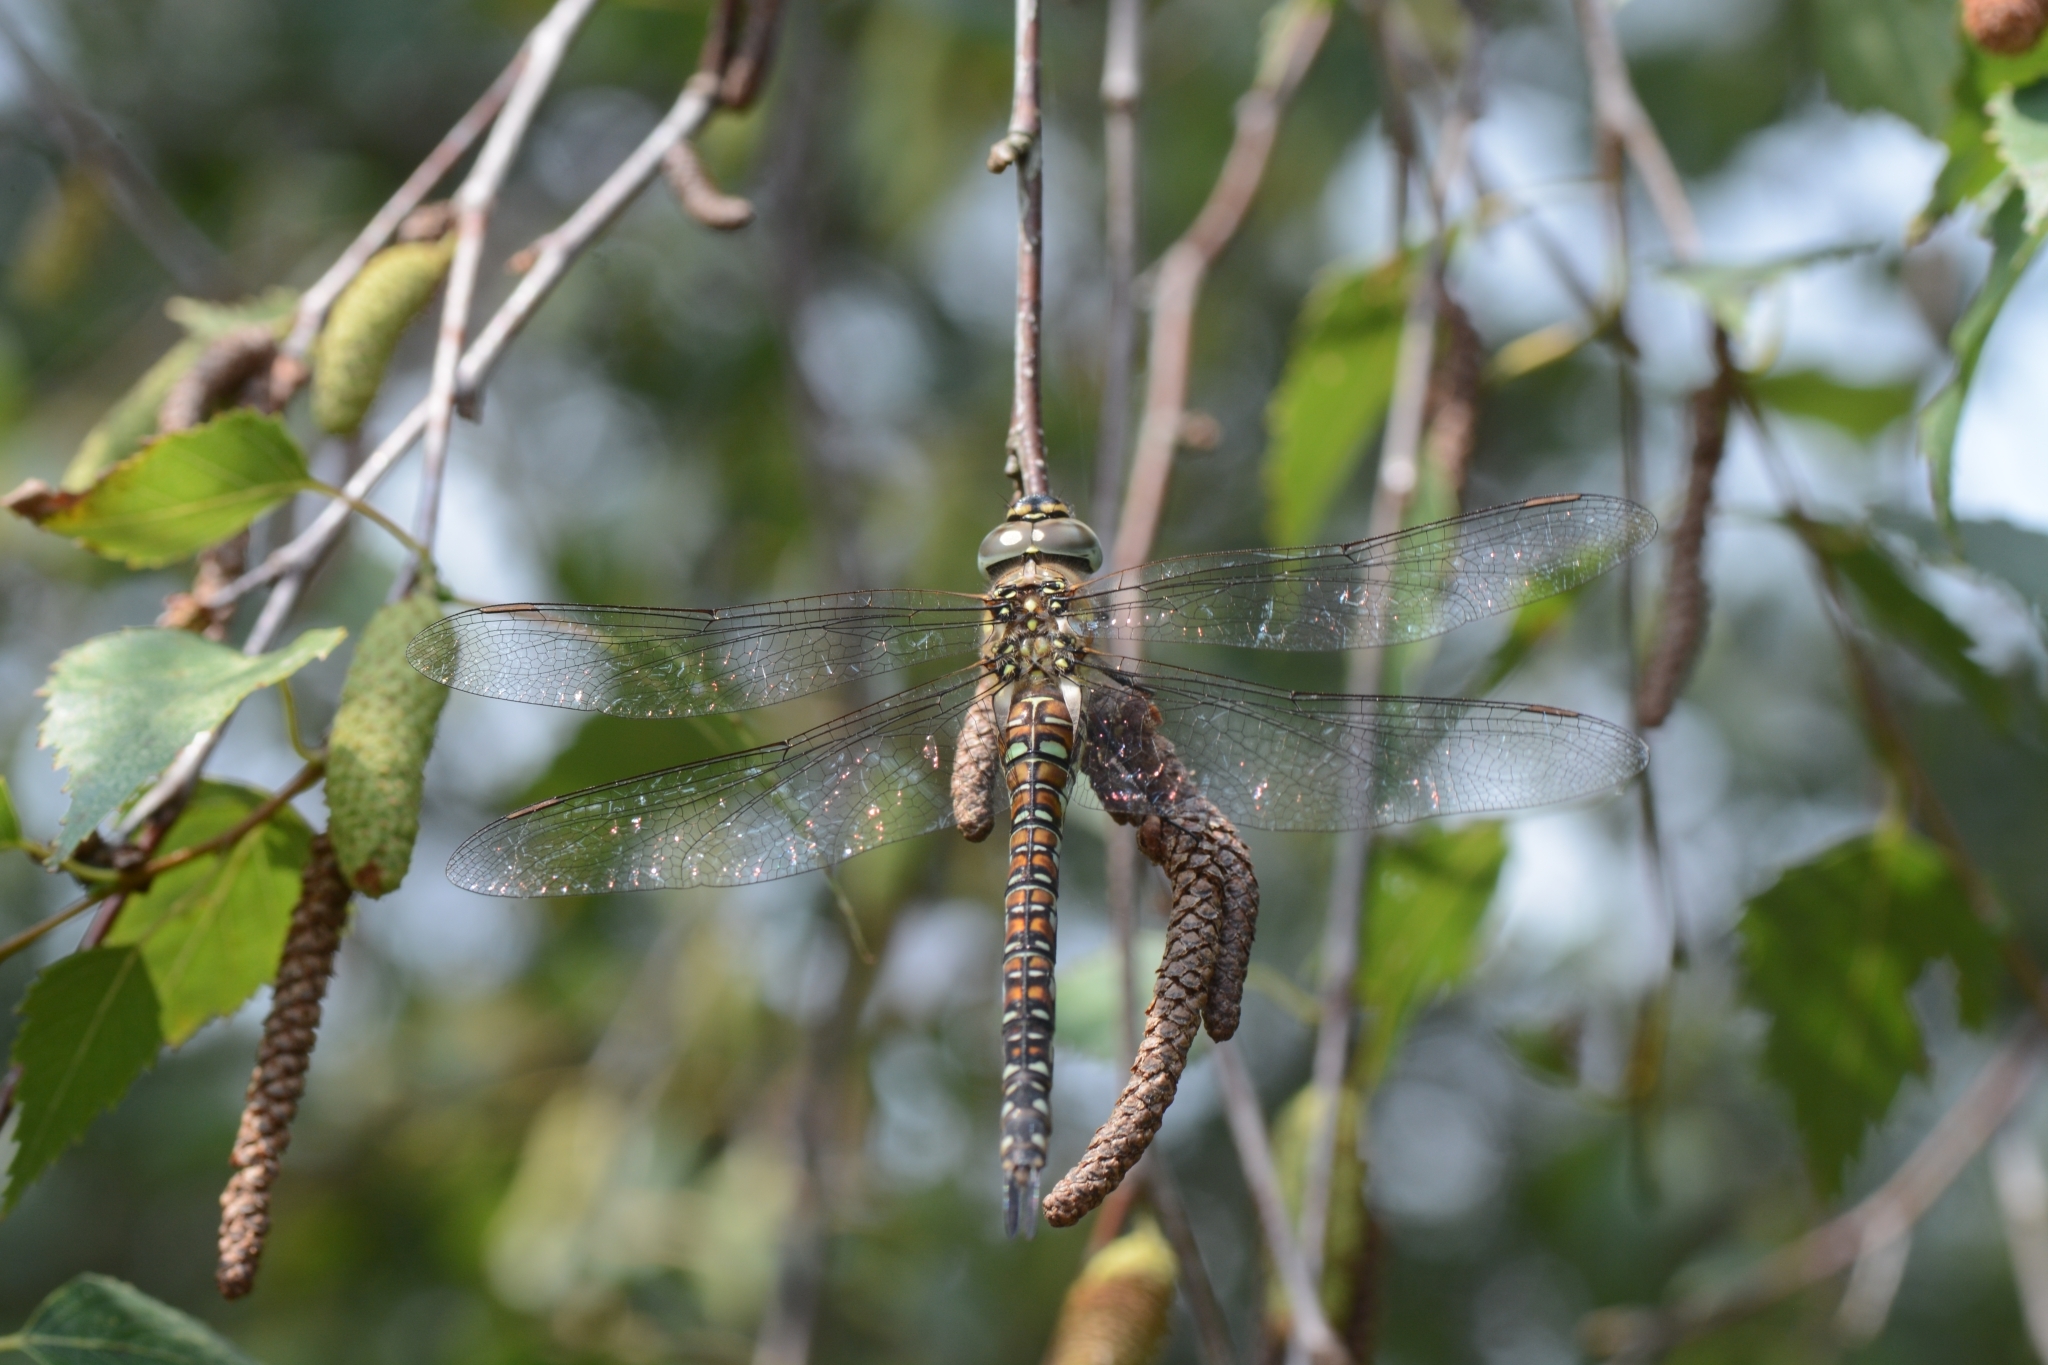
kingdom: Animalia
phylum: Arthropoda
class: Insecta
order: Odonata
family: Aeshnidae
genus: Aeshna
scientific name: Aeshna mixta
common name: Migrant hawker
